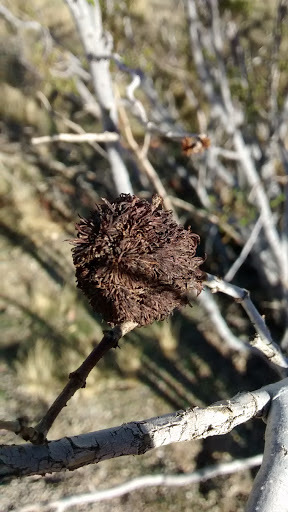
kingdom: Animalia
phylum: Arthropoda
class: Insecta
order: Diptera
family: Cecidomyiidae
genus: Asphondylia
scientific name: Asphondylia auripila
